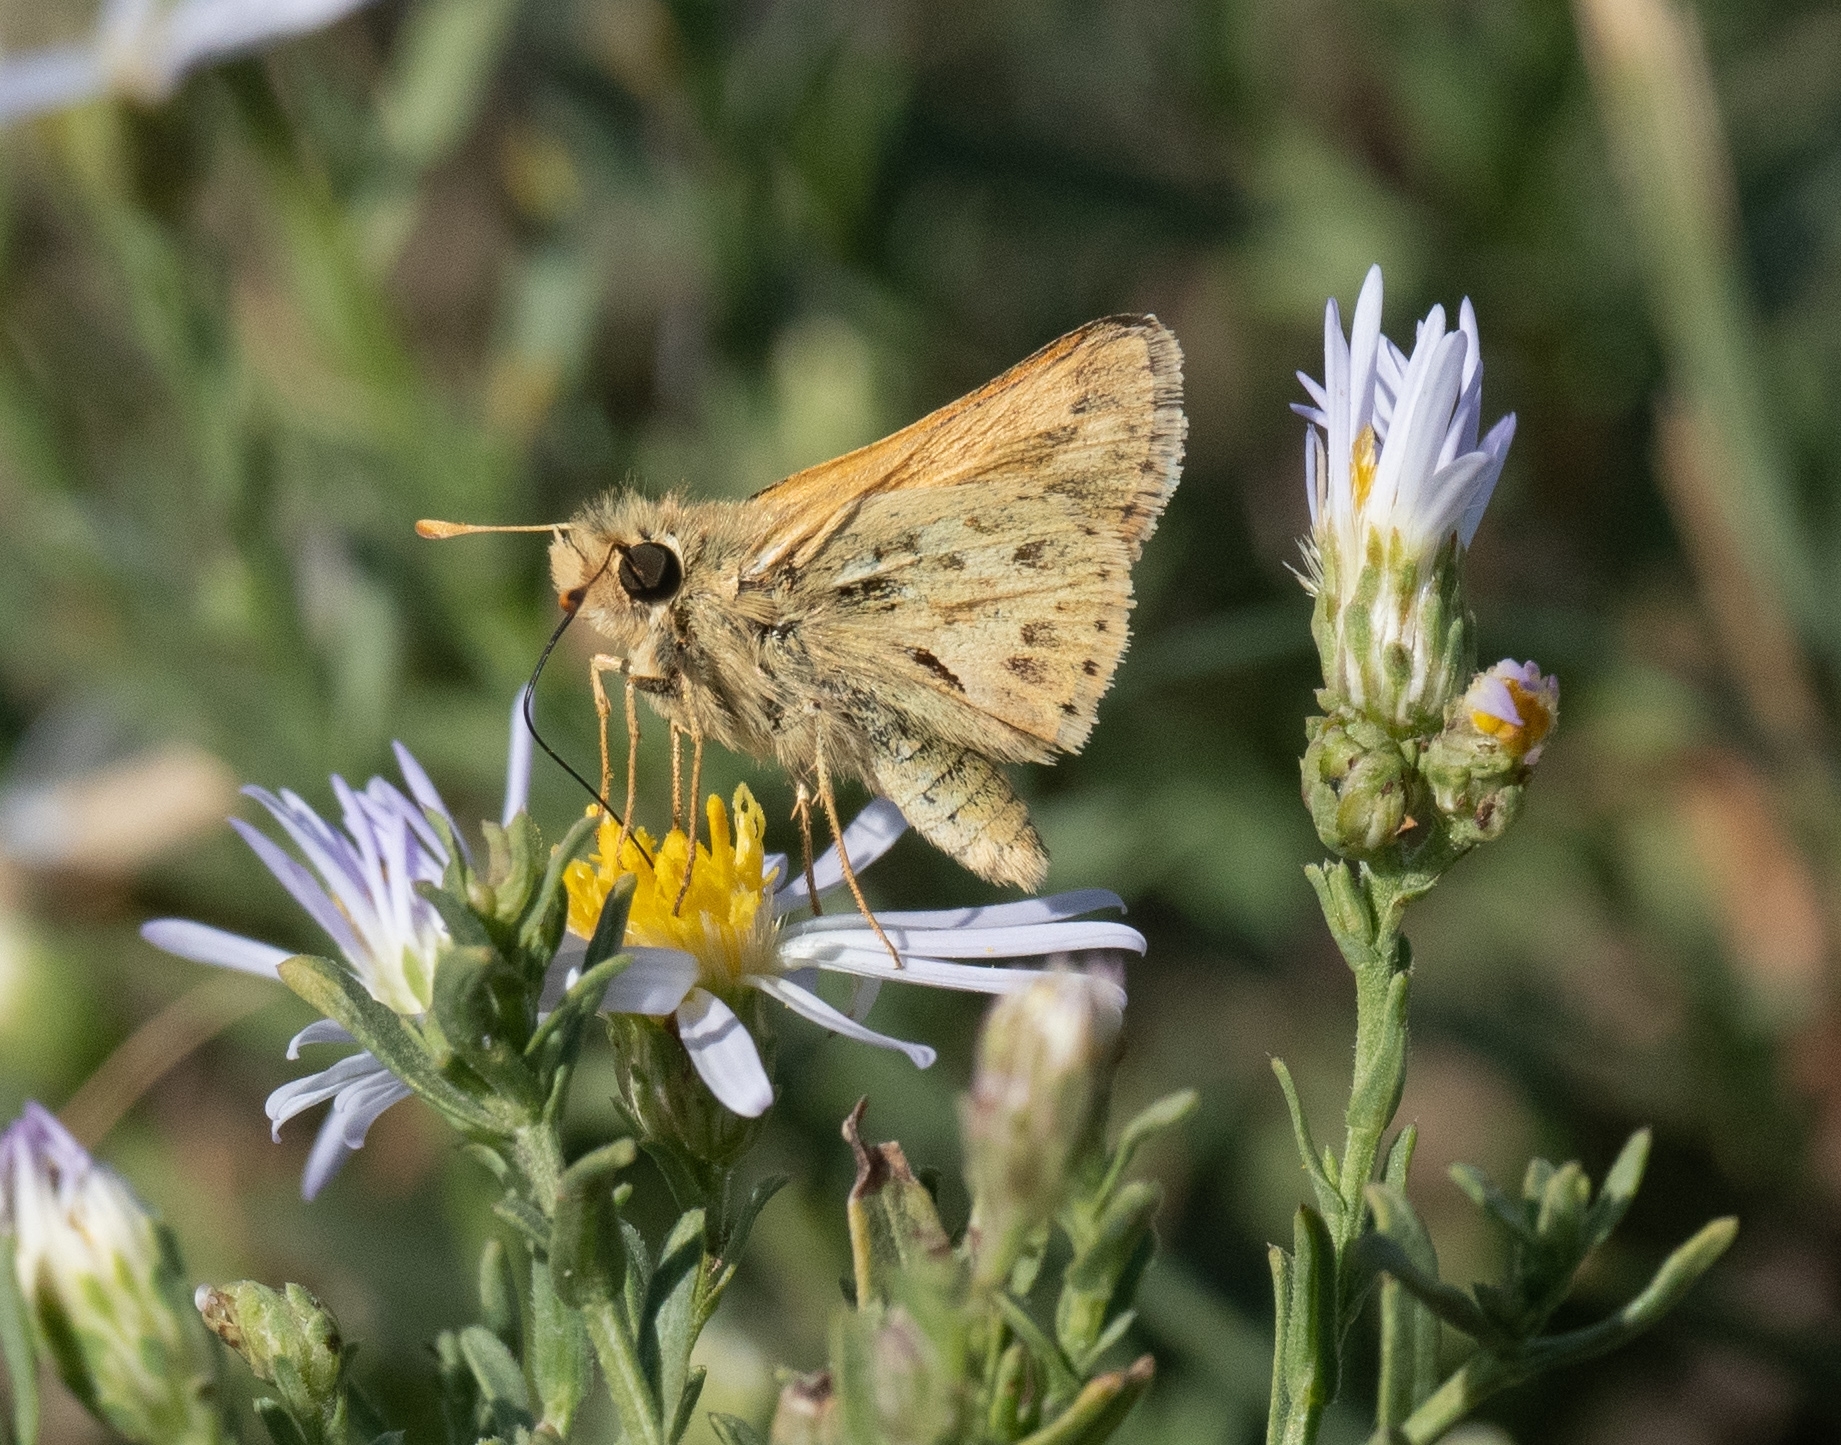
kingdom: Animalia
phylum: Arthropoda
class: Insecta
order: Lepidoptera
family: Hesperiidae
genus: Polites
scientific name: Polites sabuleti
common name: Sandhill skipper
